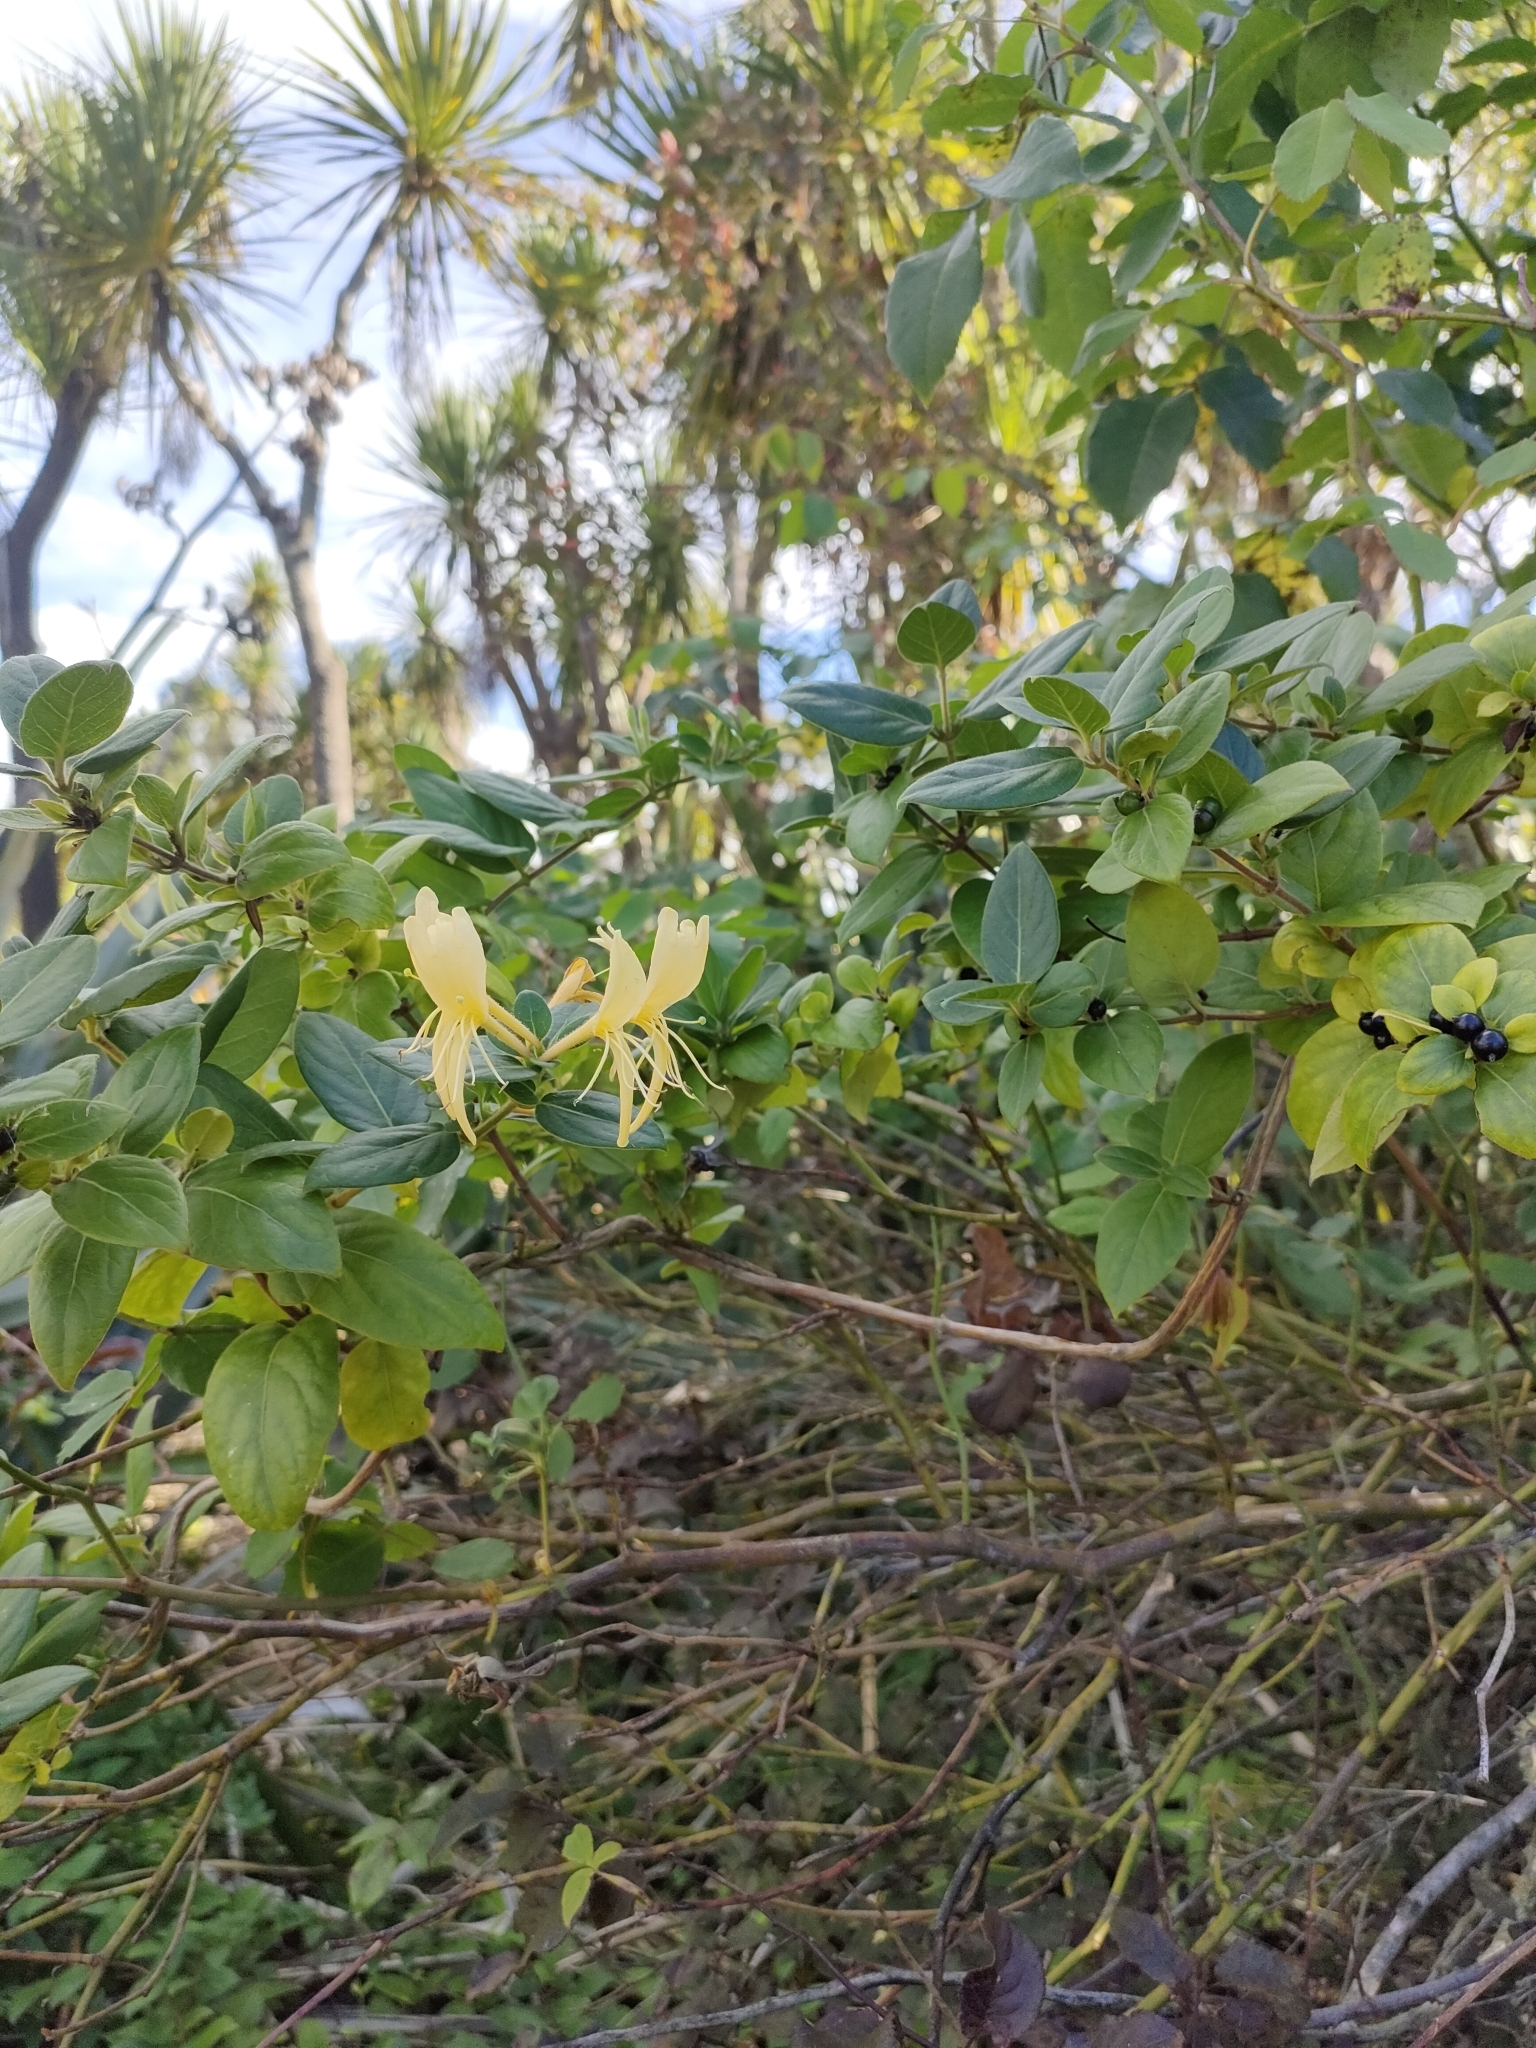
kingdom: Plantae
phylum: Tracheophyta
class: Magnoliopsida
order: Dipsacales
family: Caprifoliaceae
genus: Lonicera
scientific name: Lonicera japonica
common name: Japanese honeysuckle
